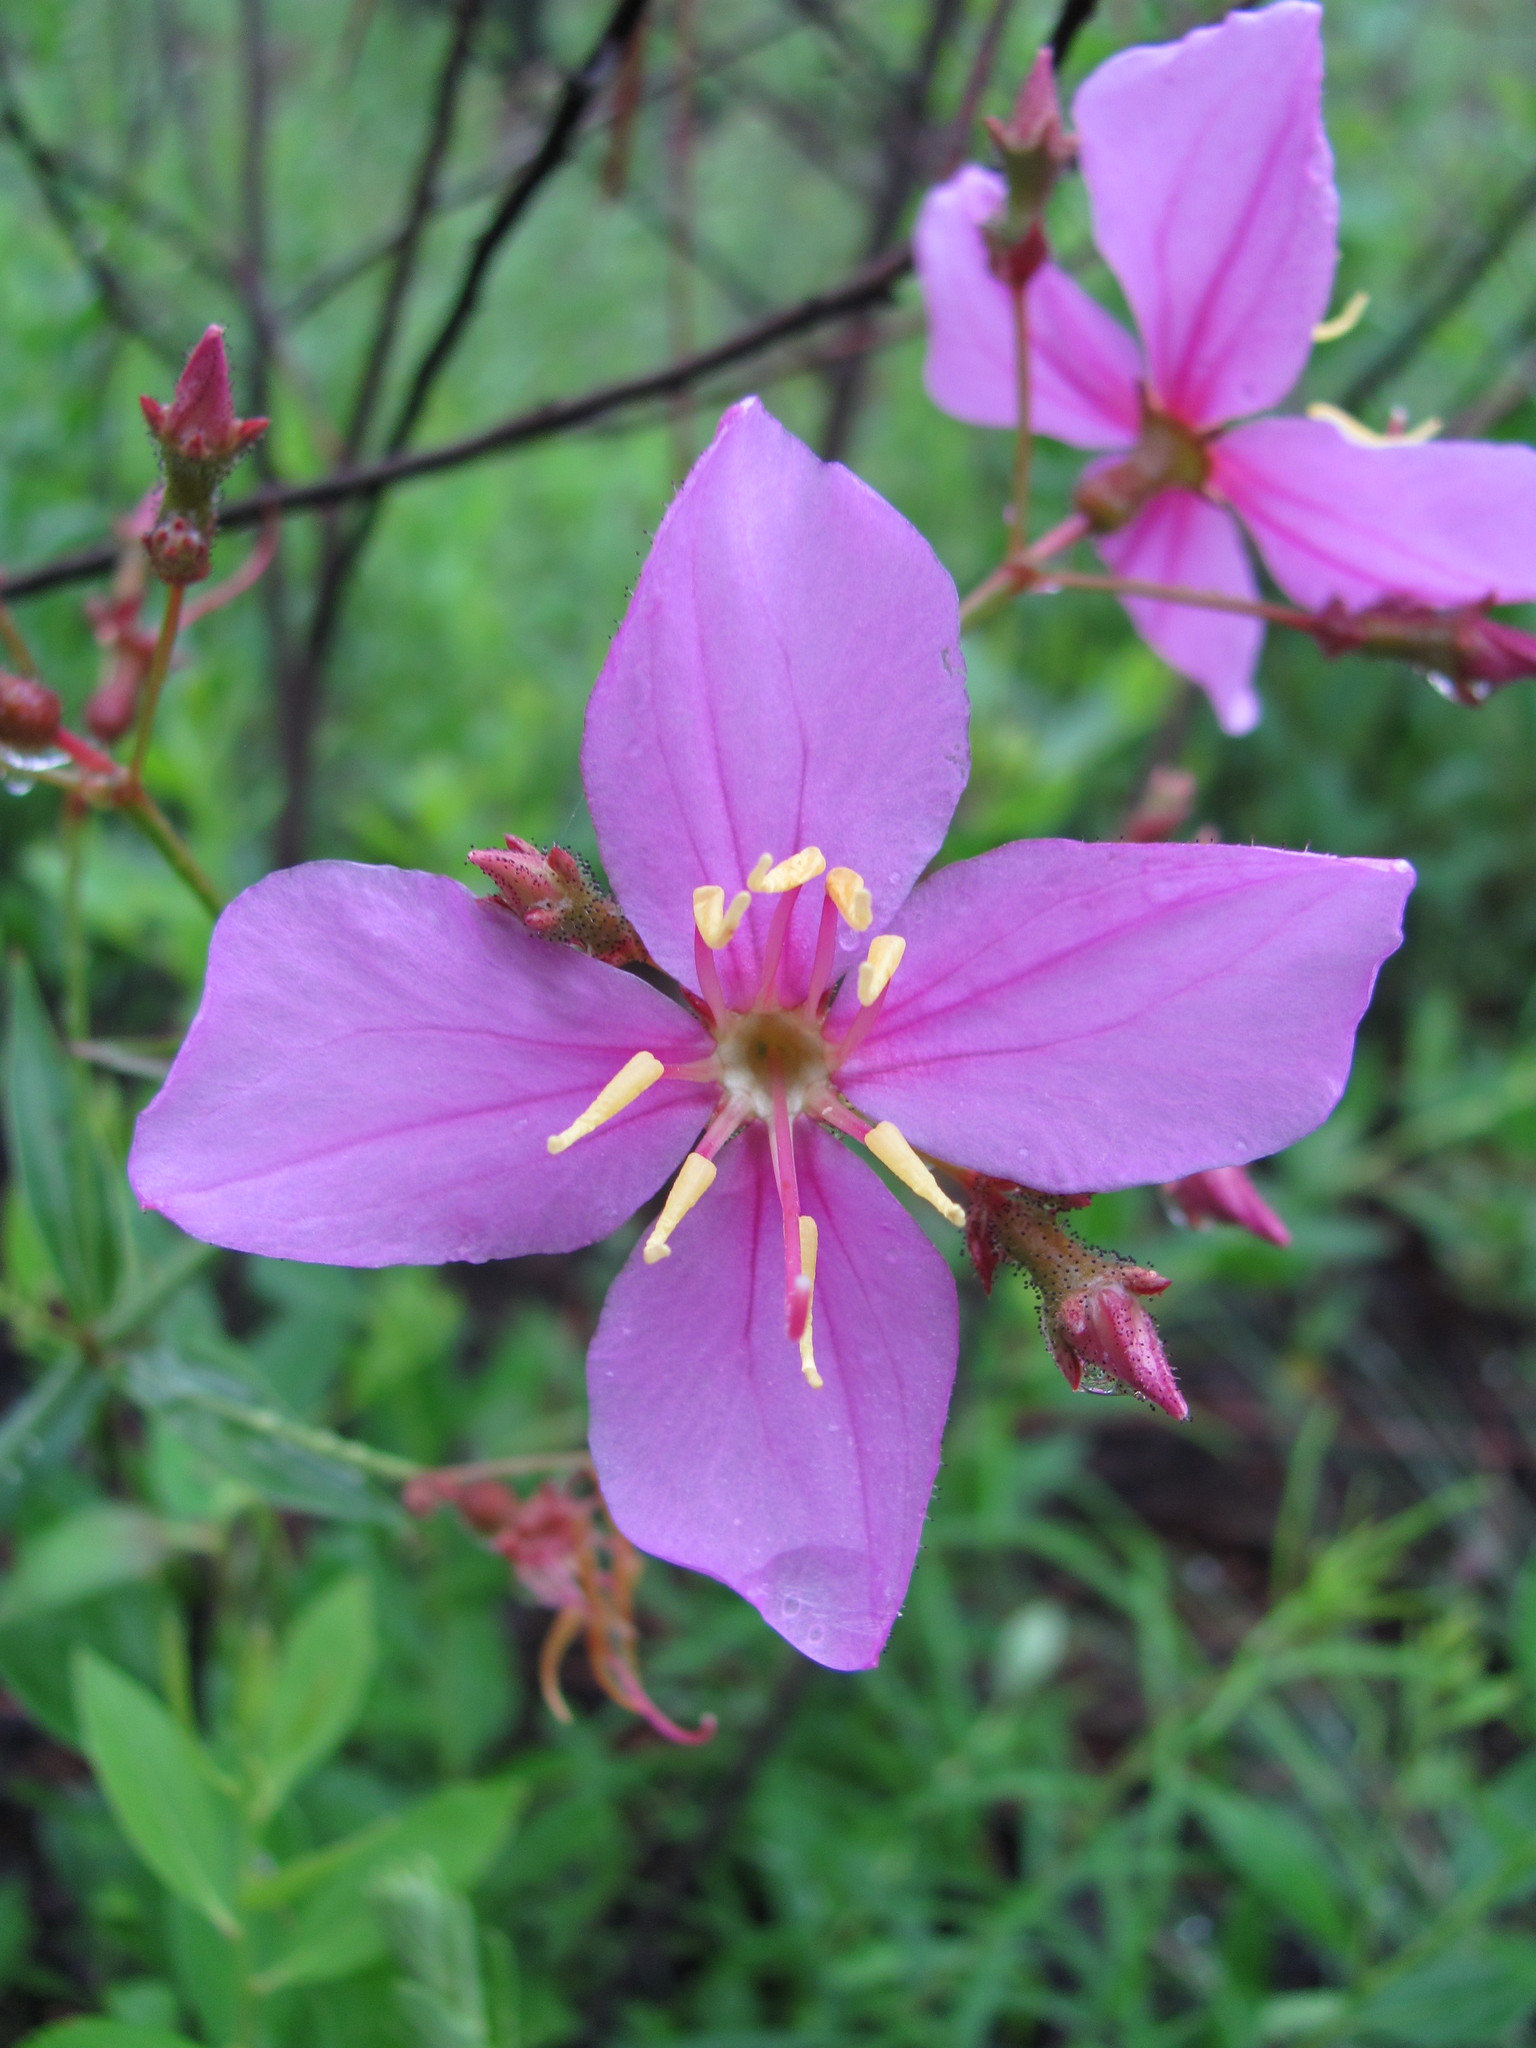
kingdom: Plantae
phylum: Tracheophyta
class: Magnoliopsida
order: Myrtales
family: Melastomataceae
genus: Rhexia
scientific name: Rhexia alifanus
